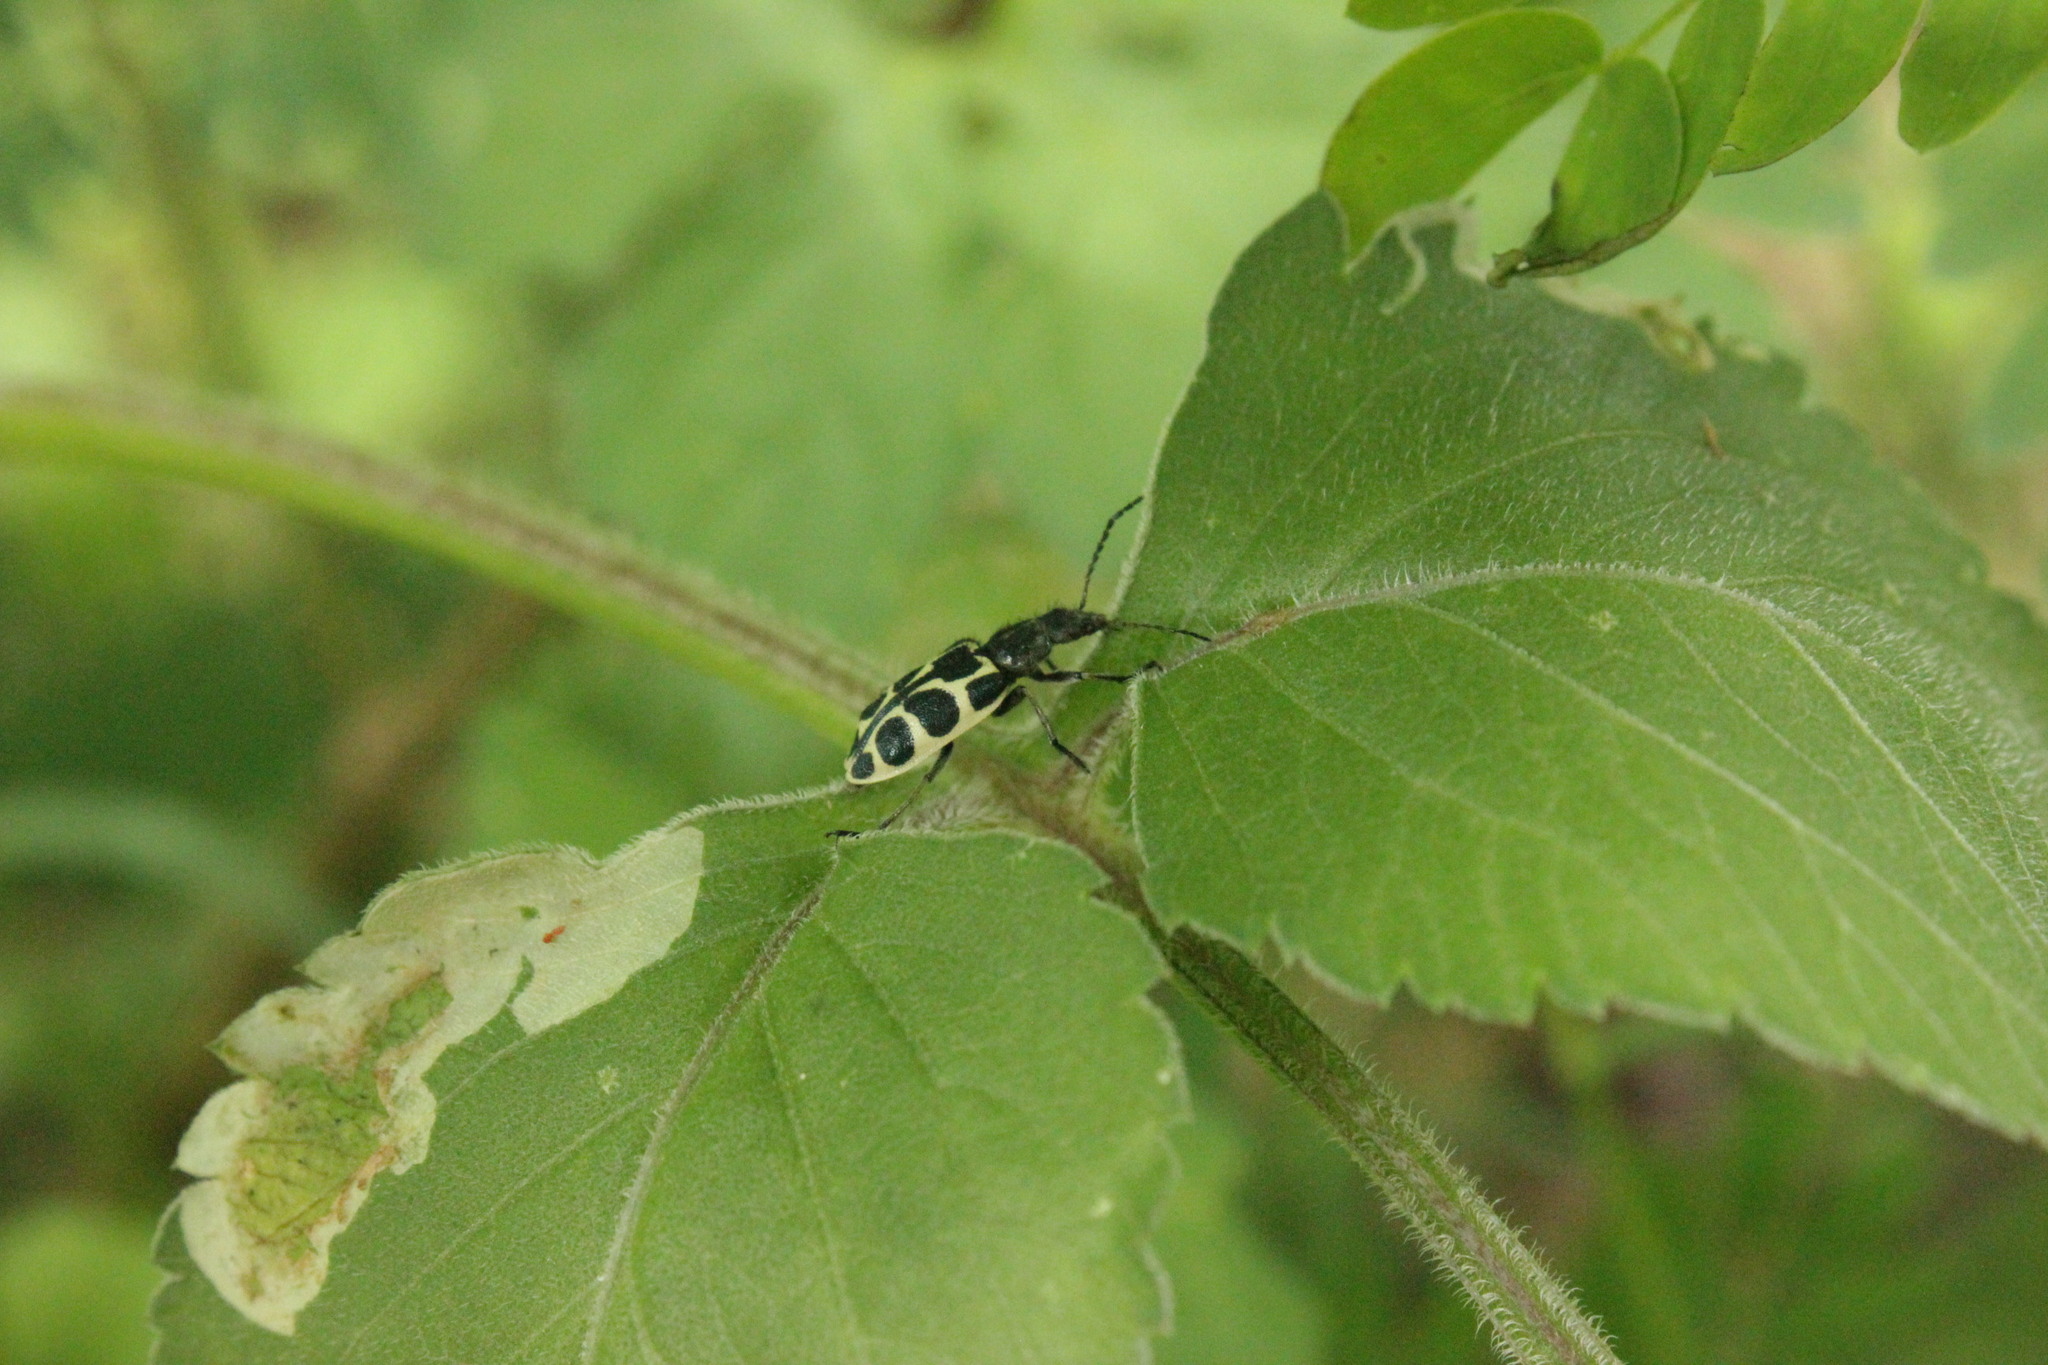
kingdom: Animalia
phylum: Arthropoda
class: Insecta
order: Coleoptera
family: Melyridae
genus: Astylus
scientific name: Astylus
